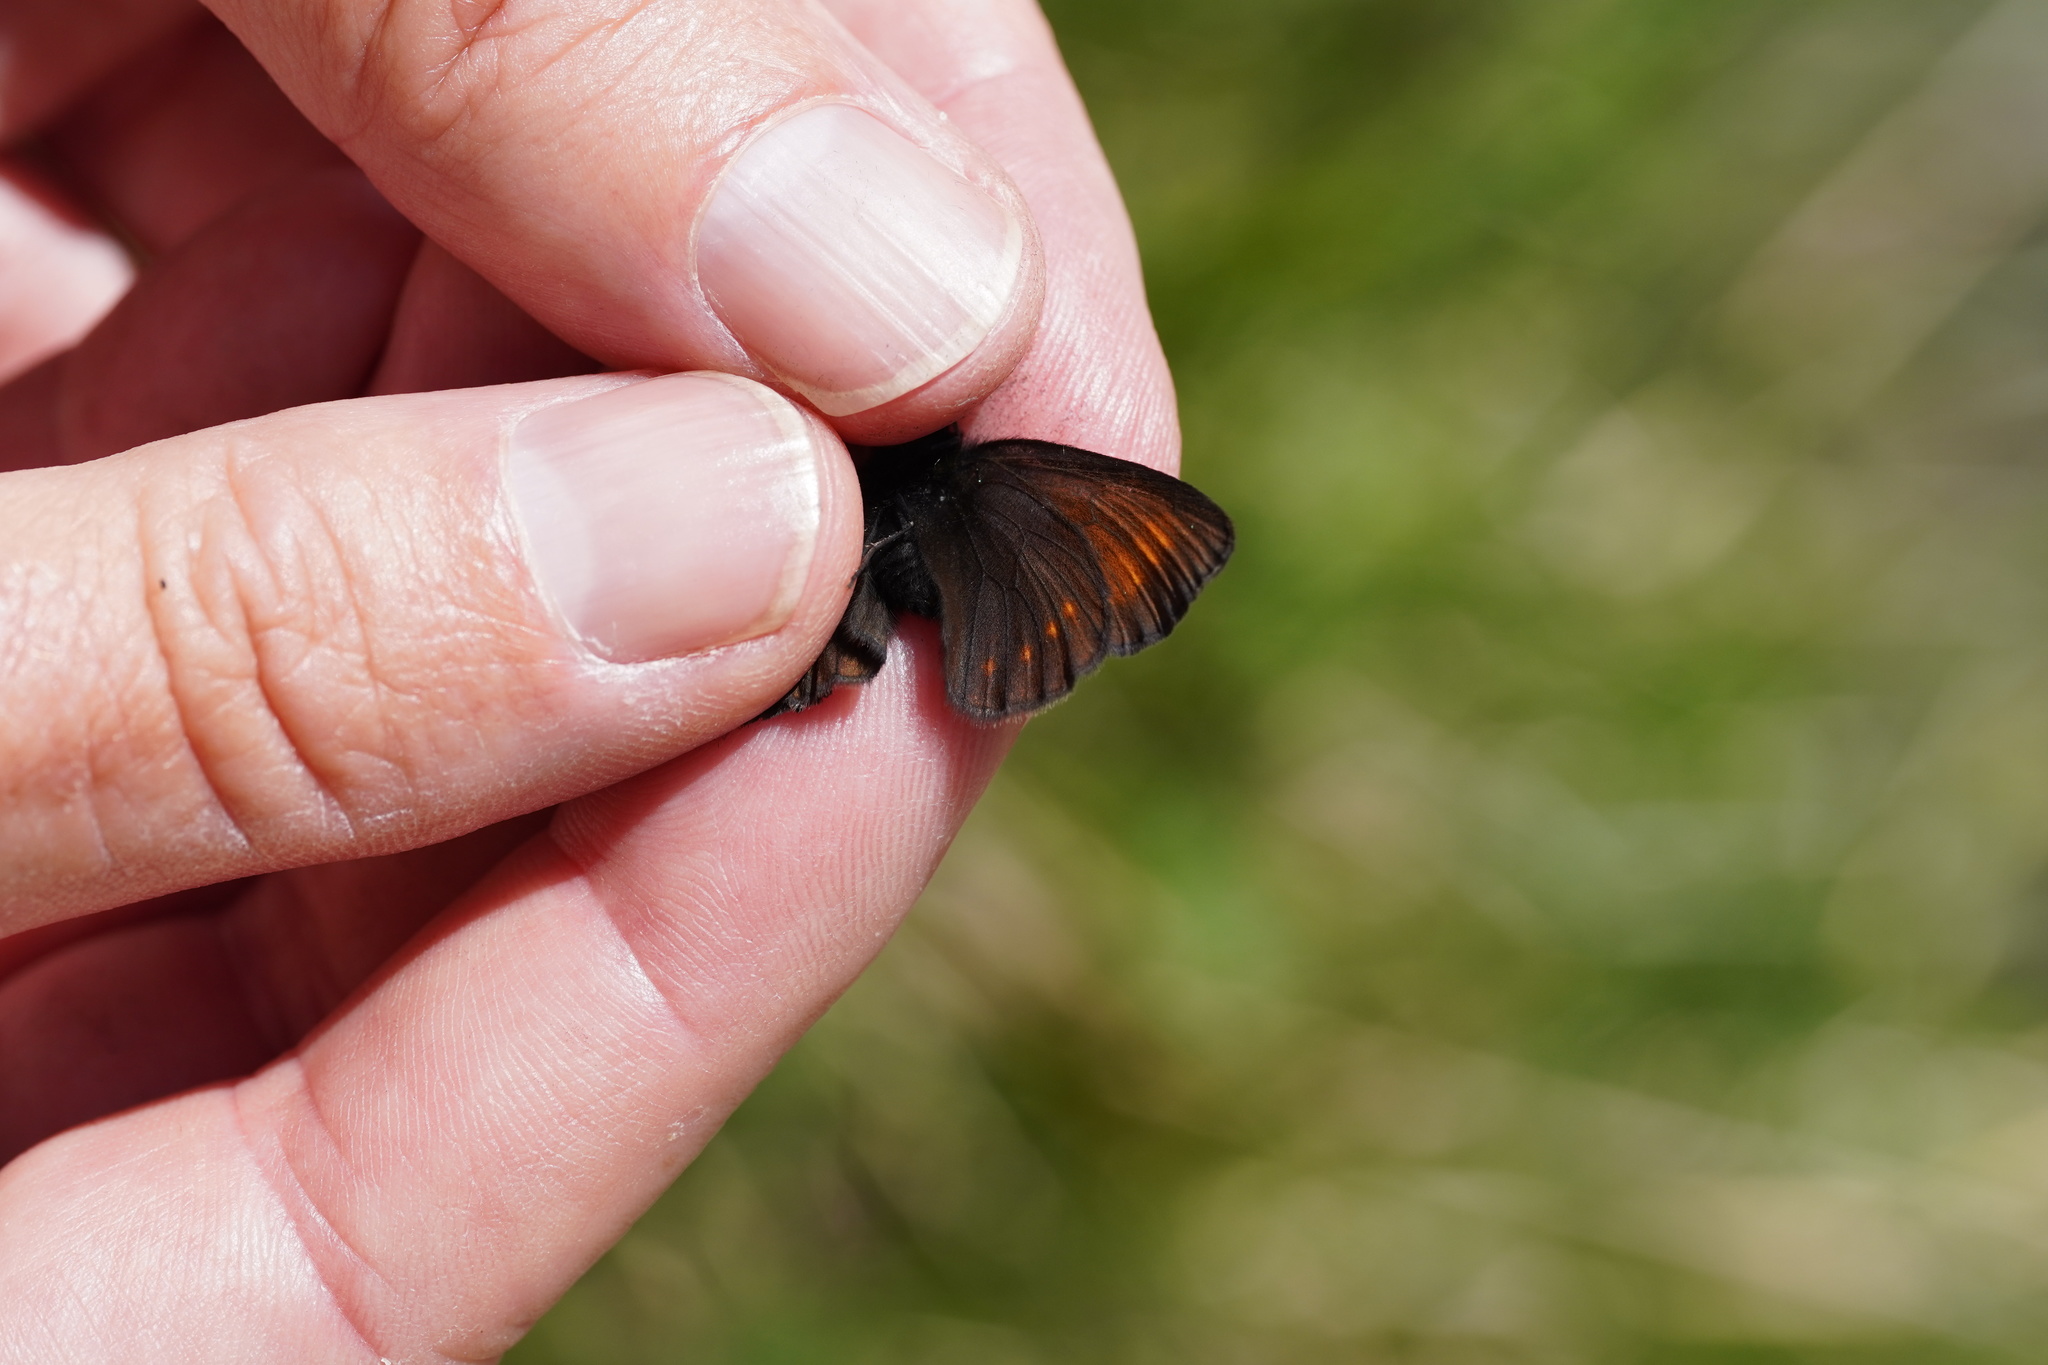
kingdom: Animalia
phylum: Arthropoda
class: Insecta
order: Lepidoptera
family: Nymphalidae
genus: Erebia
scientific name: Erebia pharte
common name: Blind ringlet
